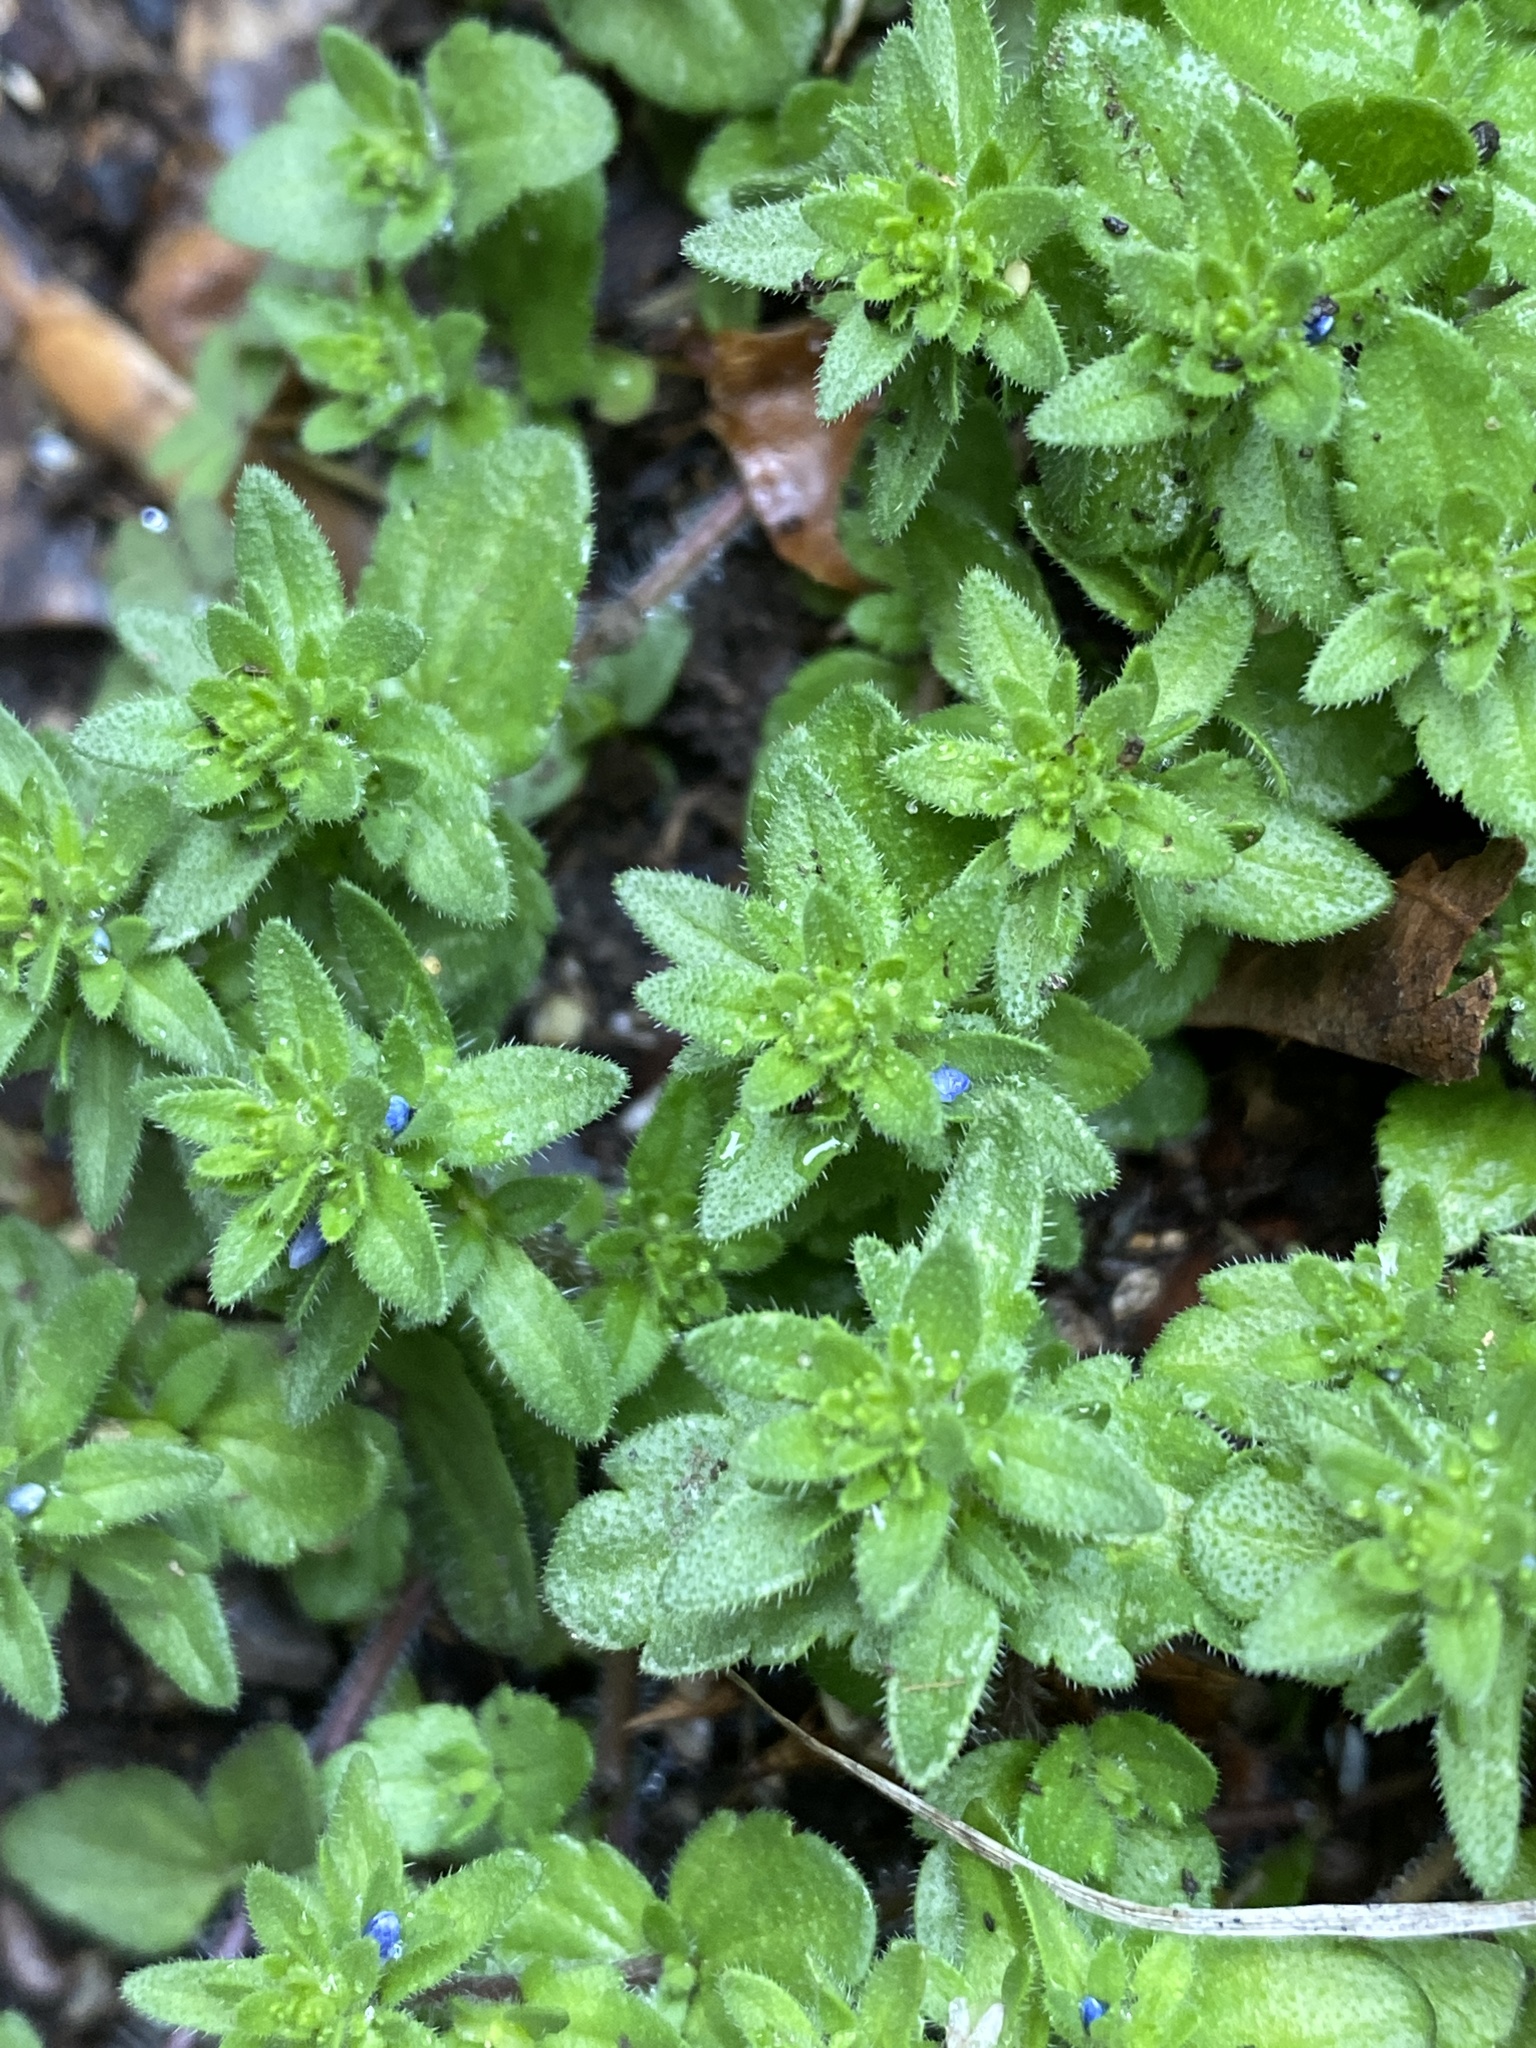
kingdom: Plantae
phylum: Tracheophyta
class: Magnoliopsida
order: Lamiales
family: Plantaginaceae
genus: Veronica
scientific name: Veronica arvensis
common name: Corn speedwell
